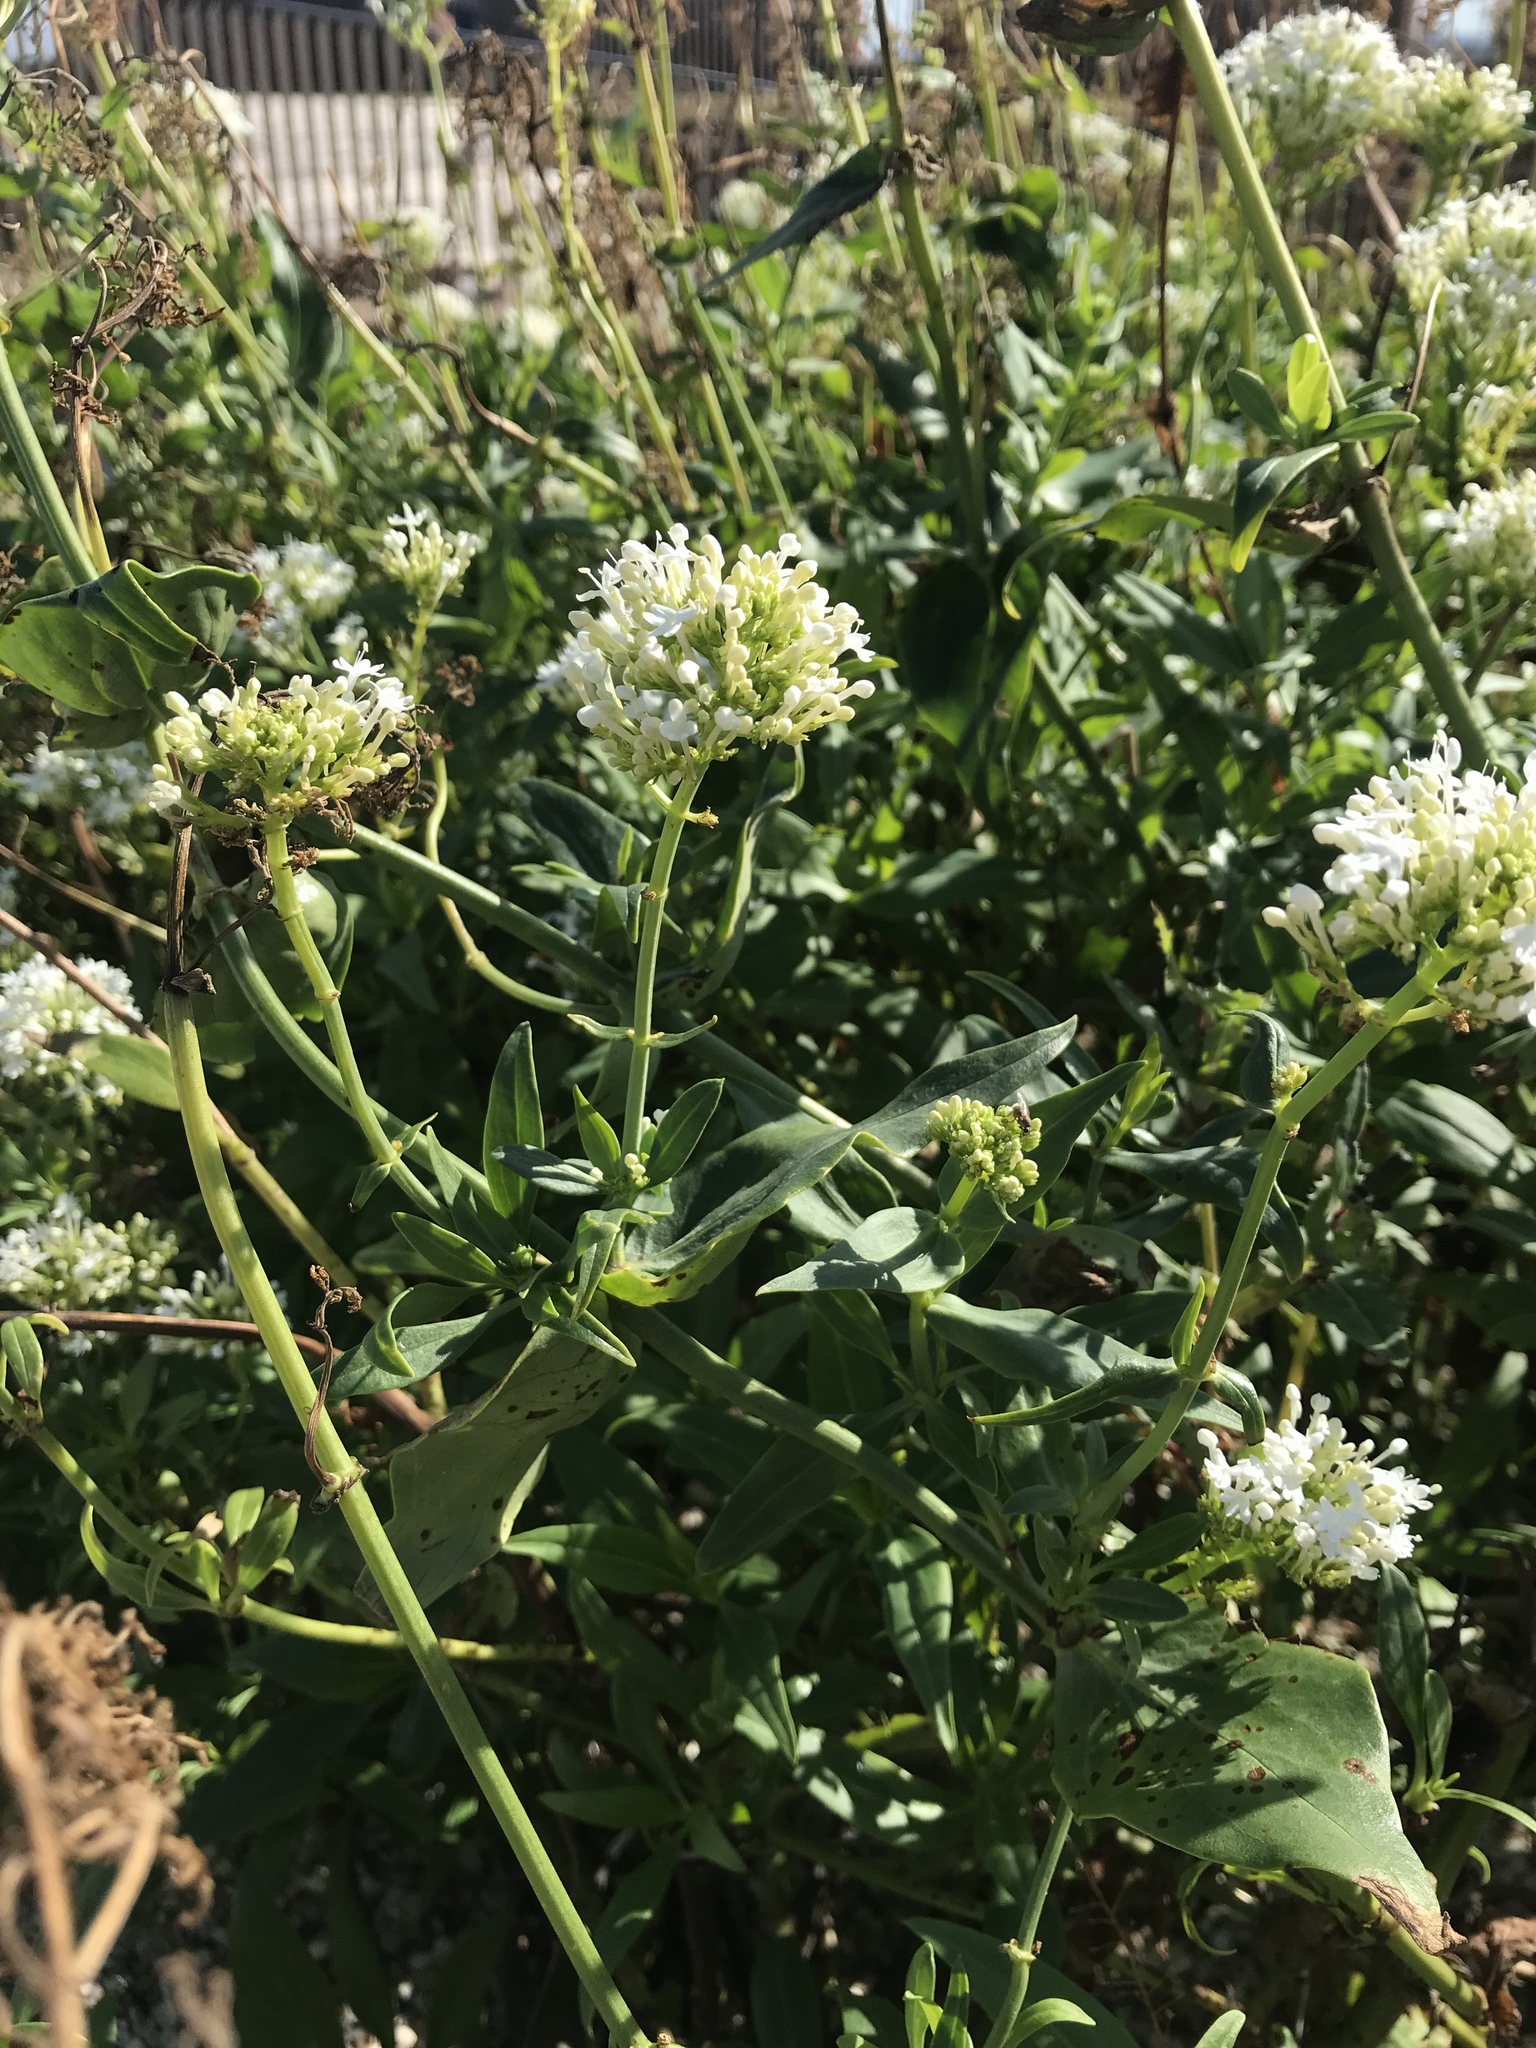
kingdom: Plantae
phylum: Tracheophyta
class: Magnoliopsida
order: Dipsacales
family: Caprifoliaceae
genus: Centranthus
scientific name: Centranthus ruber
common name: Red valerian
